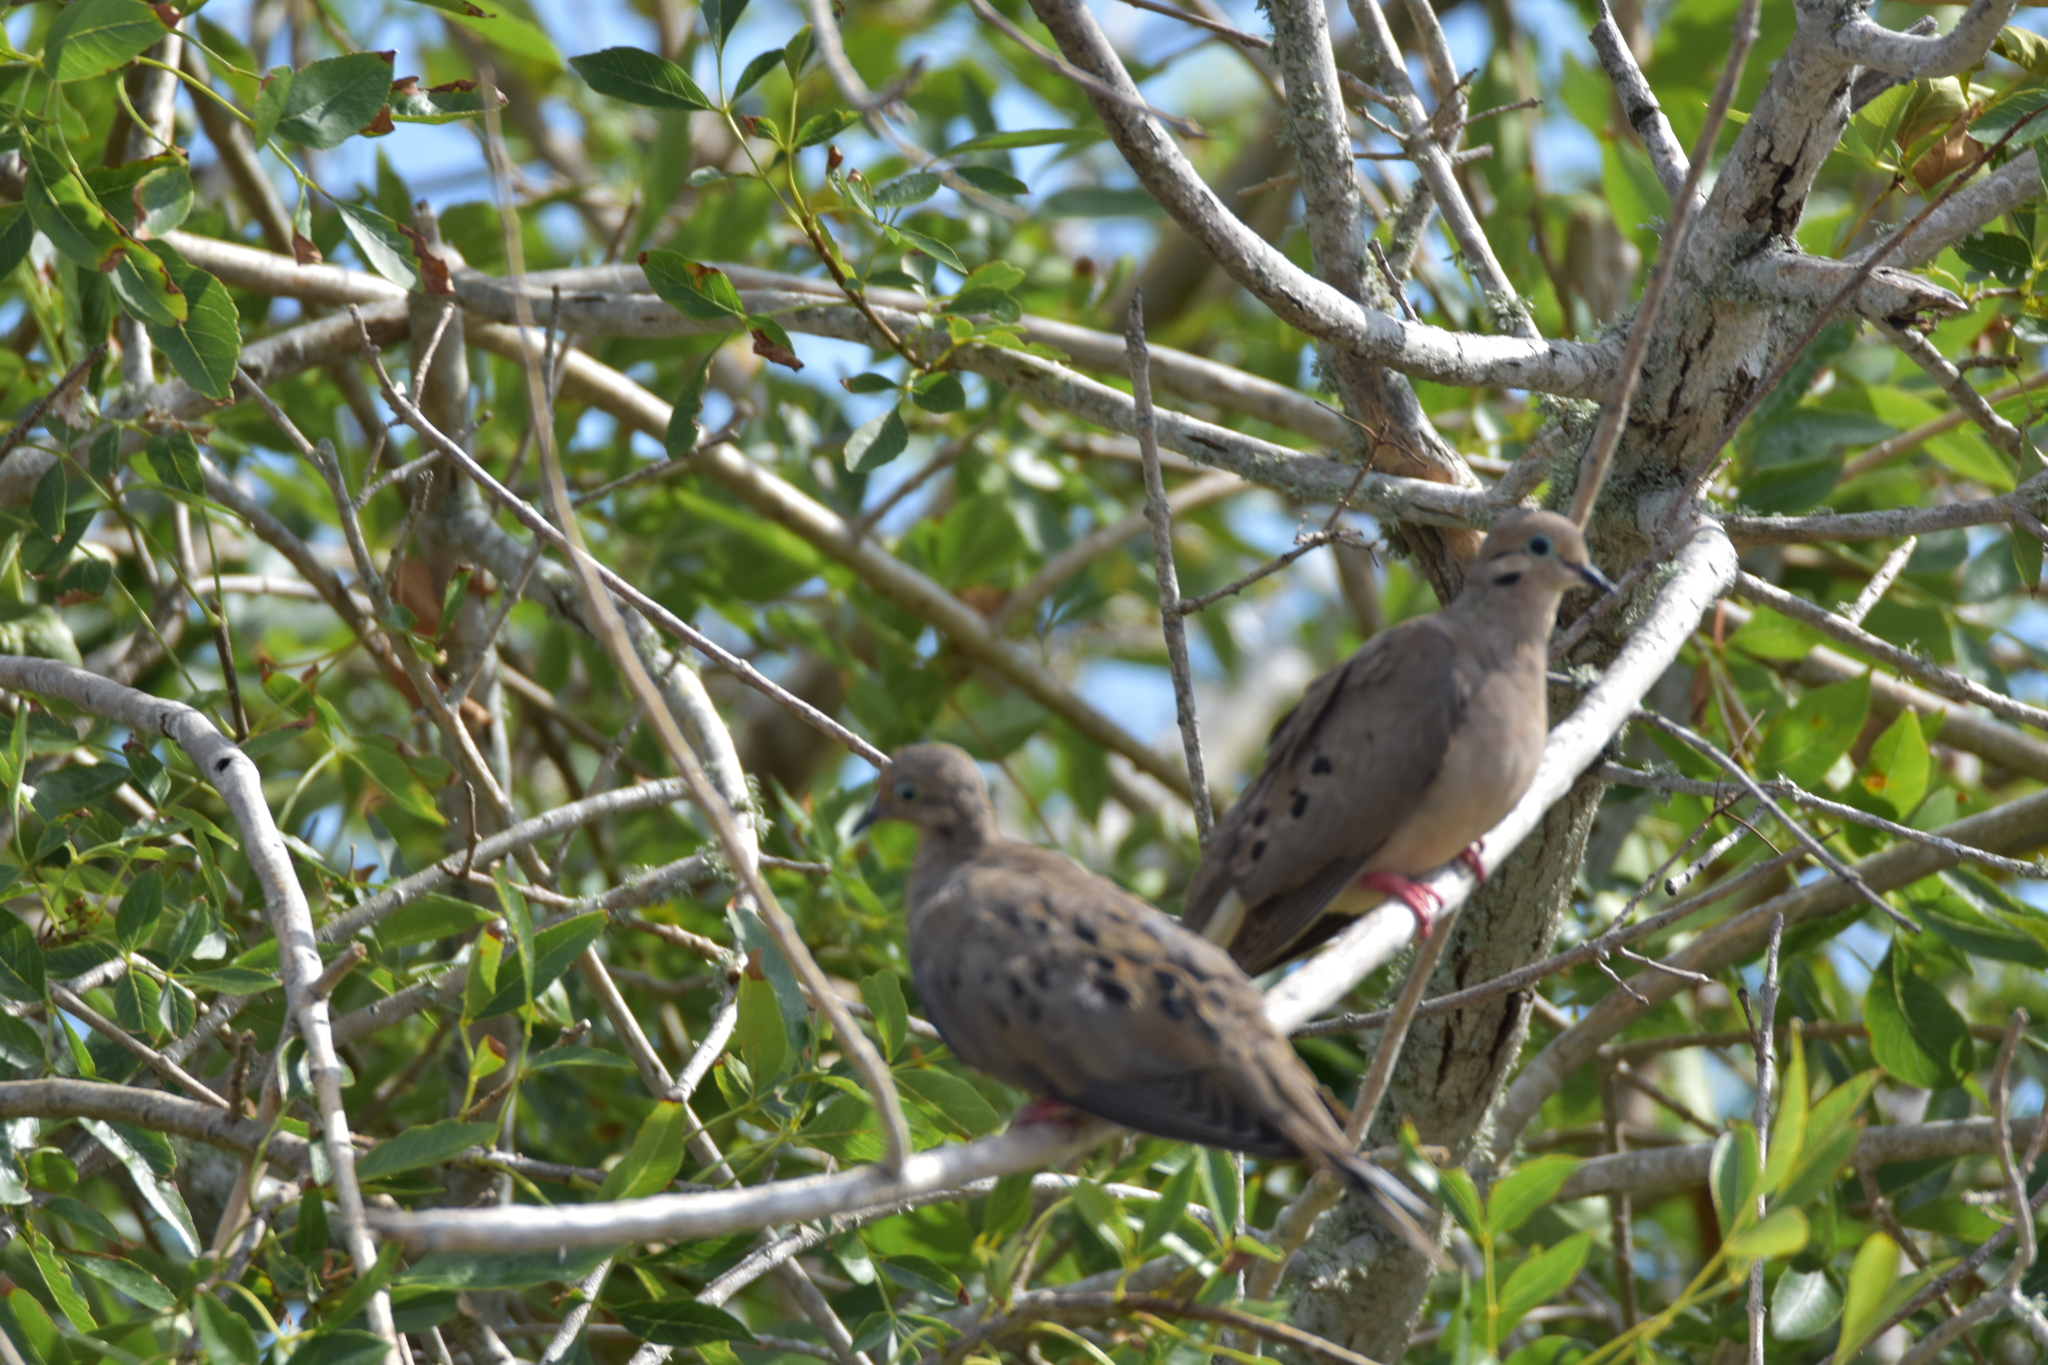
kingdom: Animalia
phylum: Chordata
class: Aves
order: Columbiformes
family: Columbidae
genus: Zenaida
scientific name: Zenaida macroura
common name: Mourning dove
